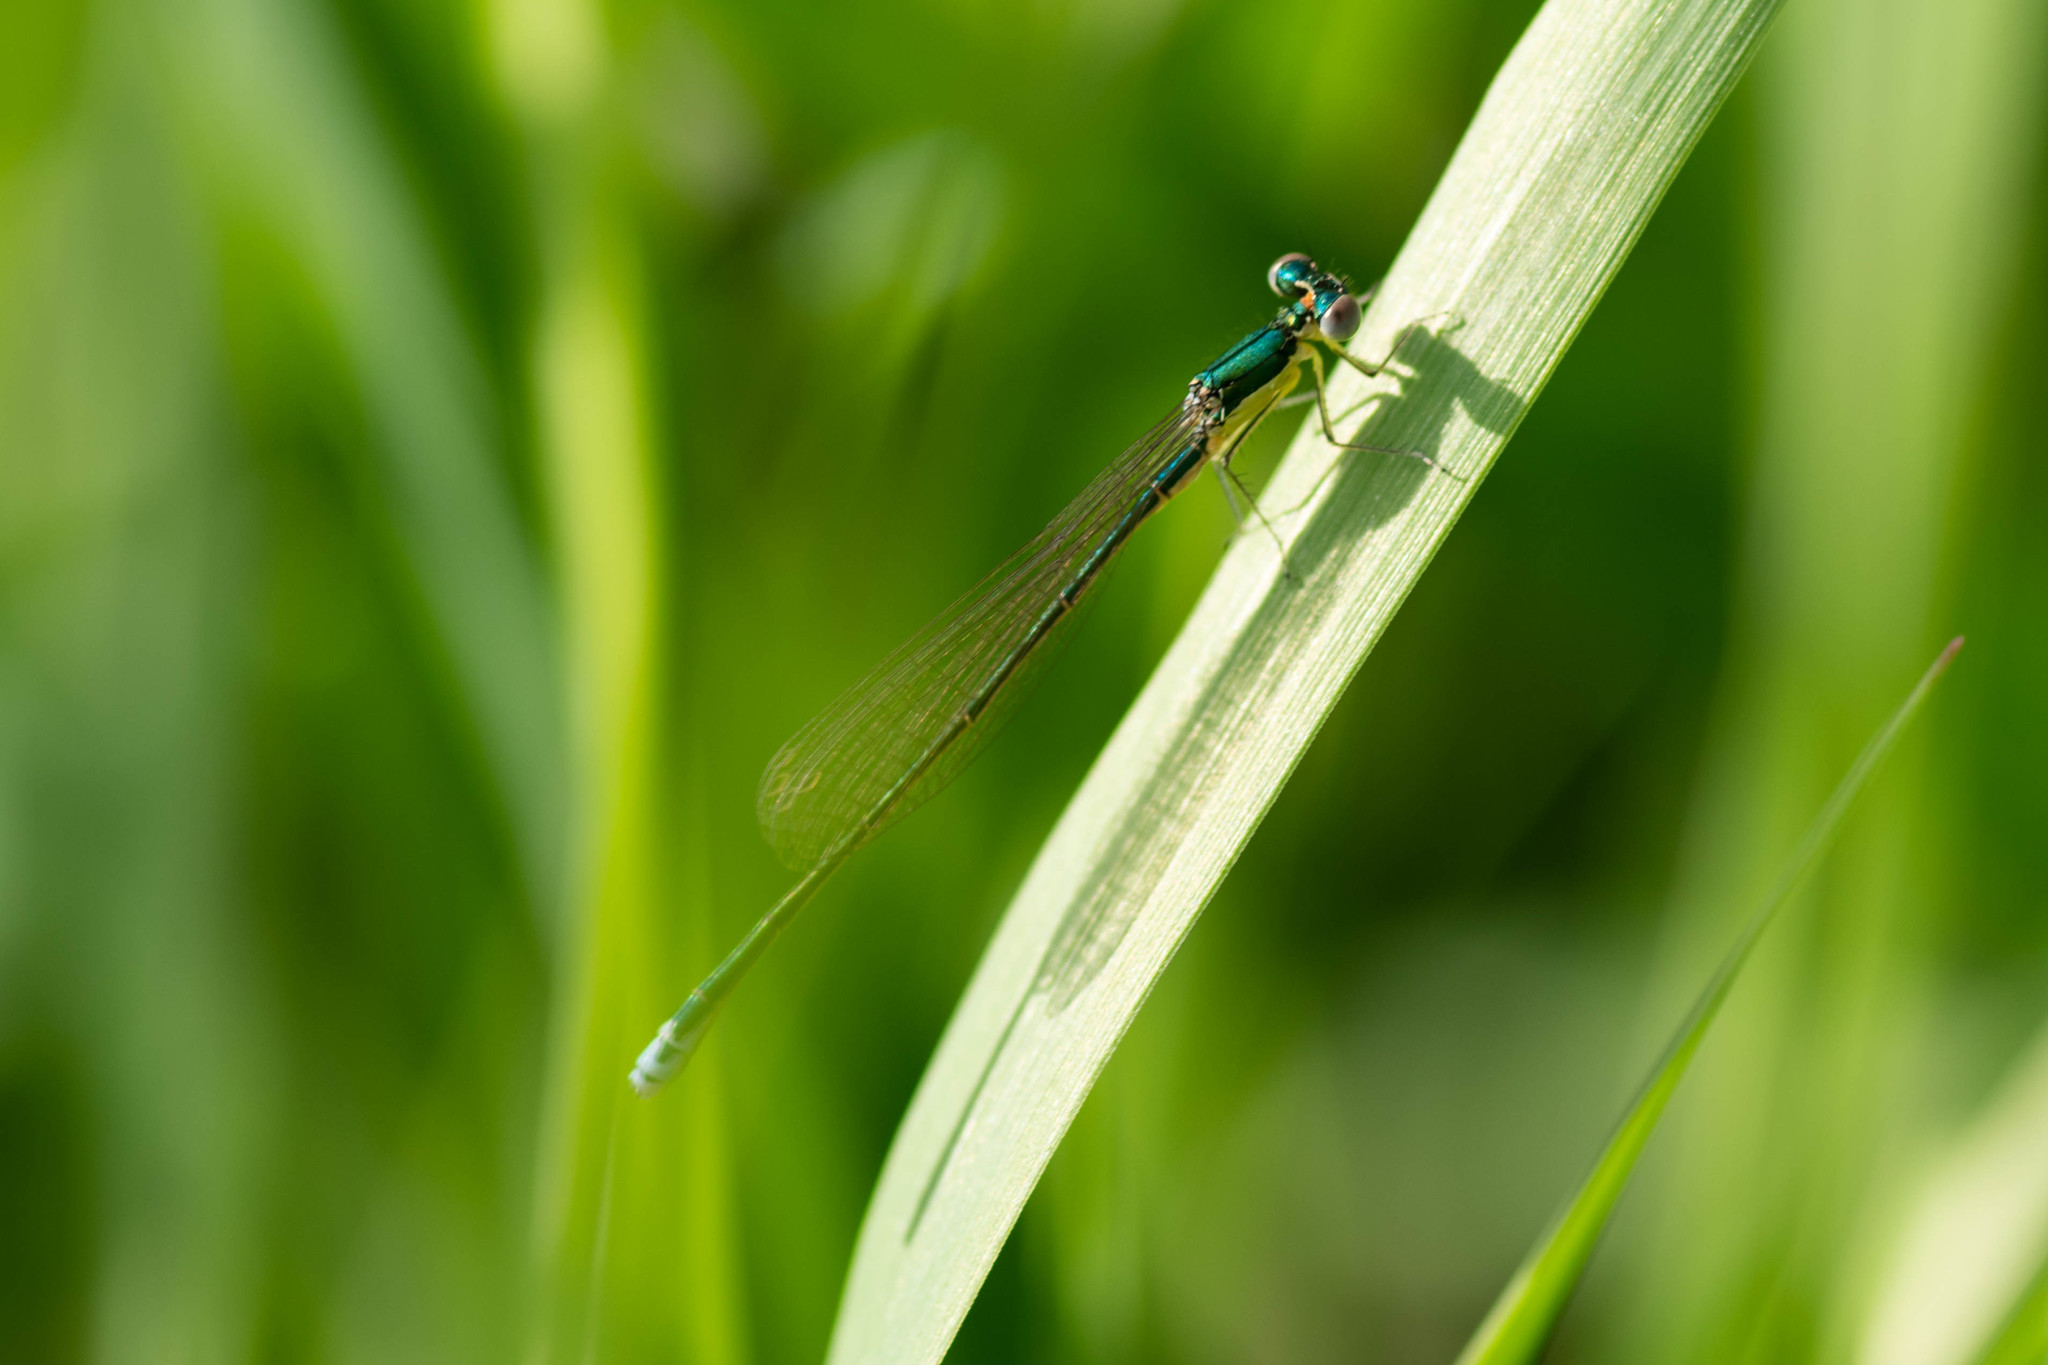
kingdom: Animalia
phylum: Arthropoda
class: Insecta
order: Odonata
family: Coenagrionidae
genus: Nehalennia
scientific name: Nehalennia irene
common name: Sedge sprite
